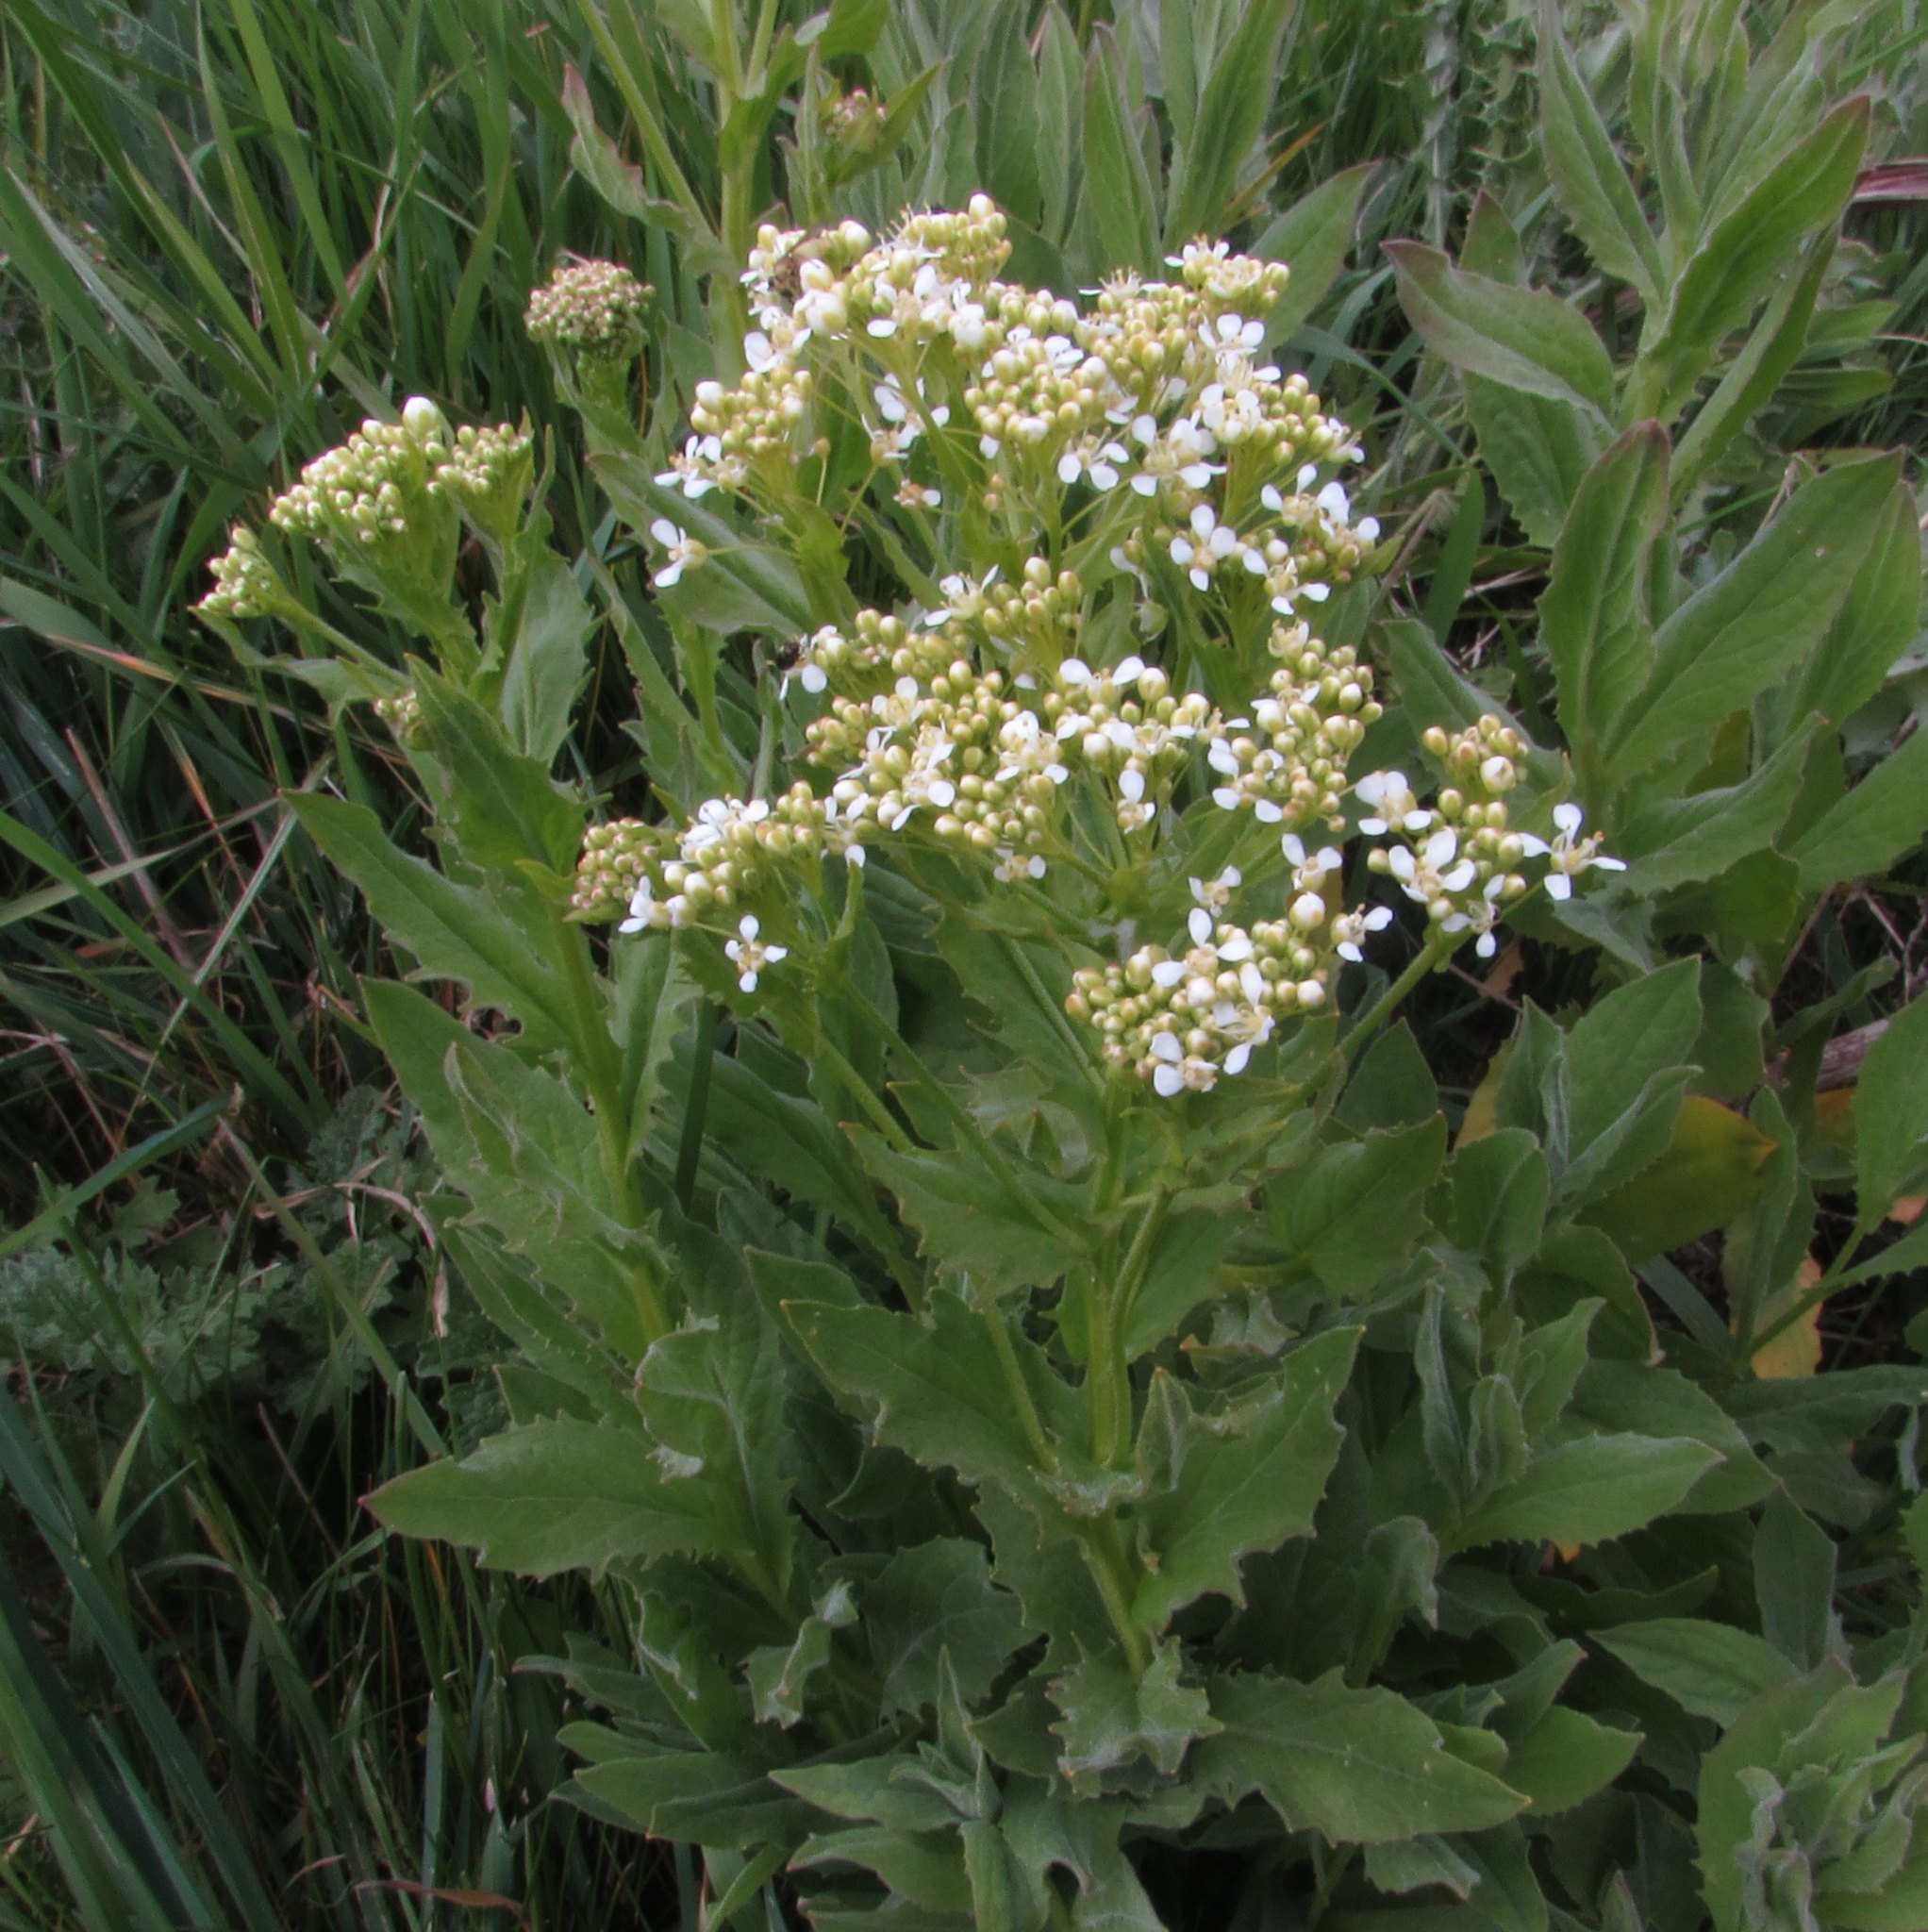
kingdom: Plantae
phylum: Tracheophyta
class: Magnoliopsida
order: Brassicales
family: Brassicaceae
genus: Lepidium
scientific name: Lepidium draba
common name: Hoary cress
